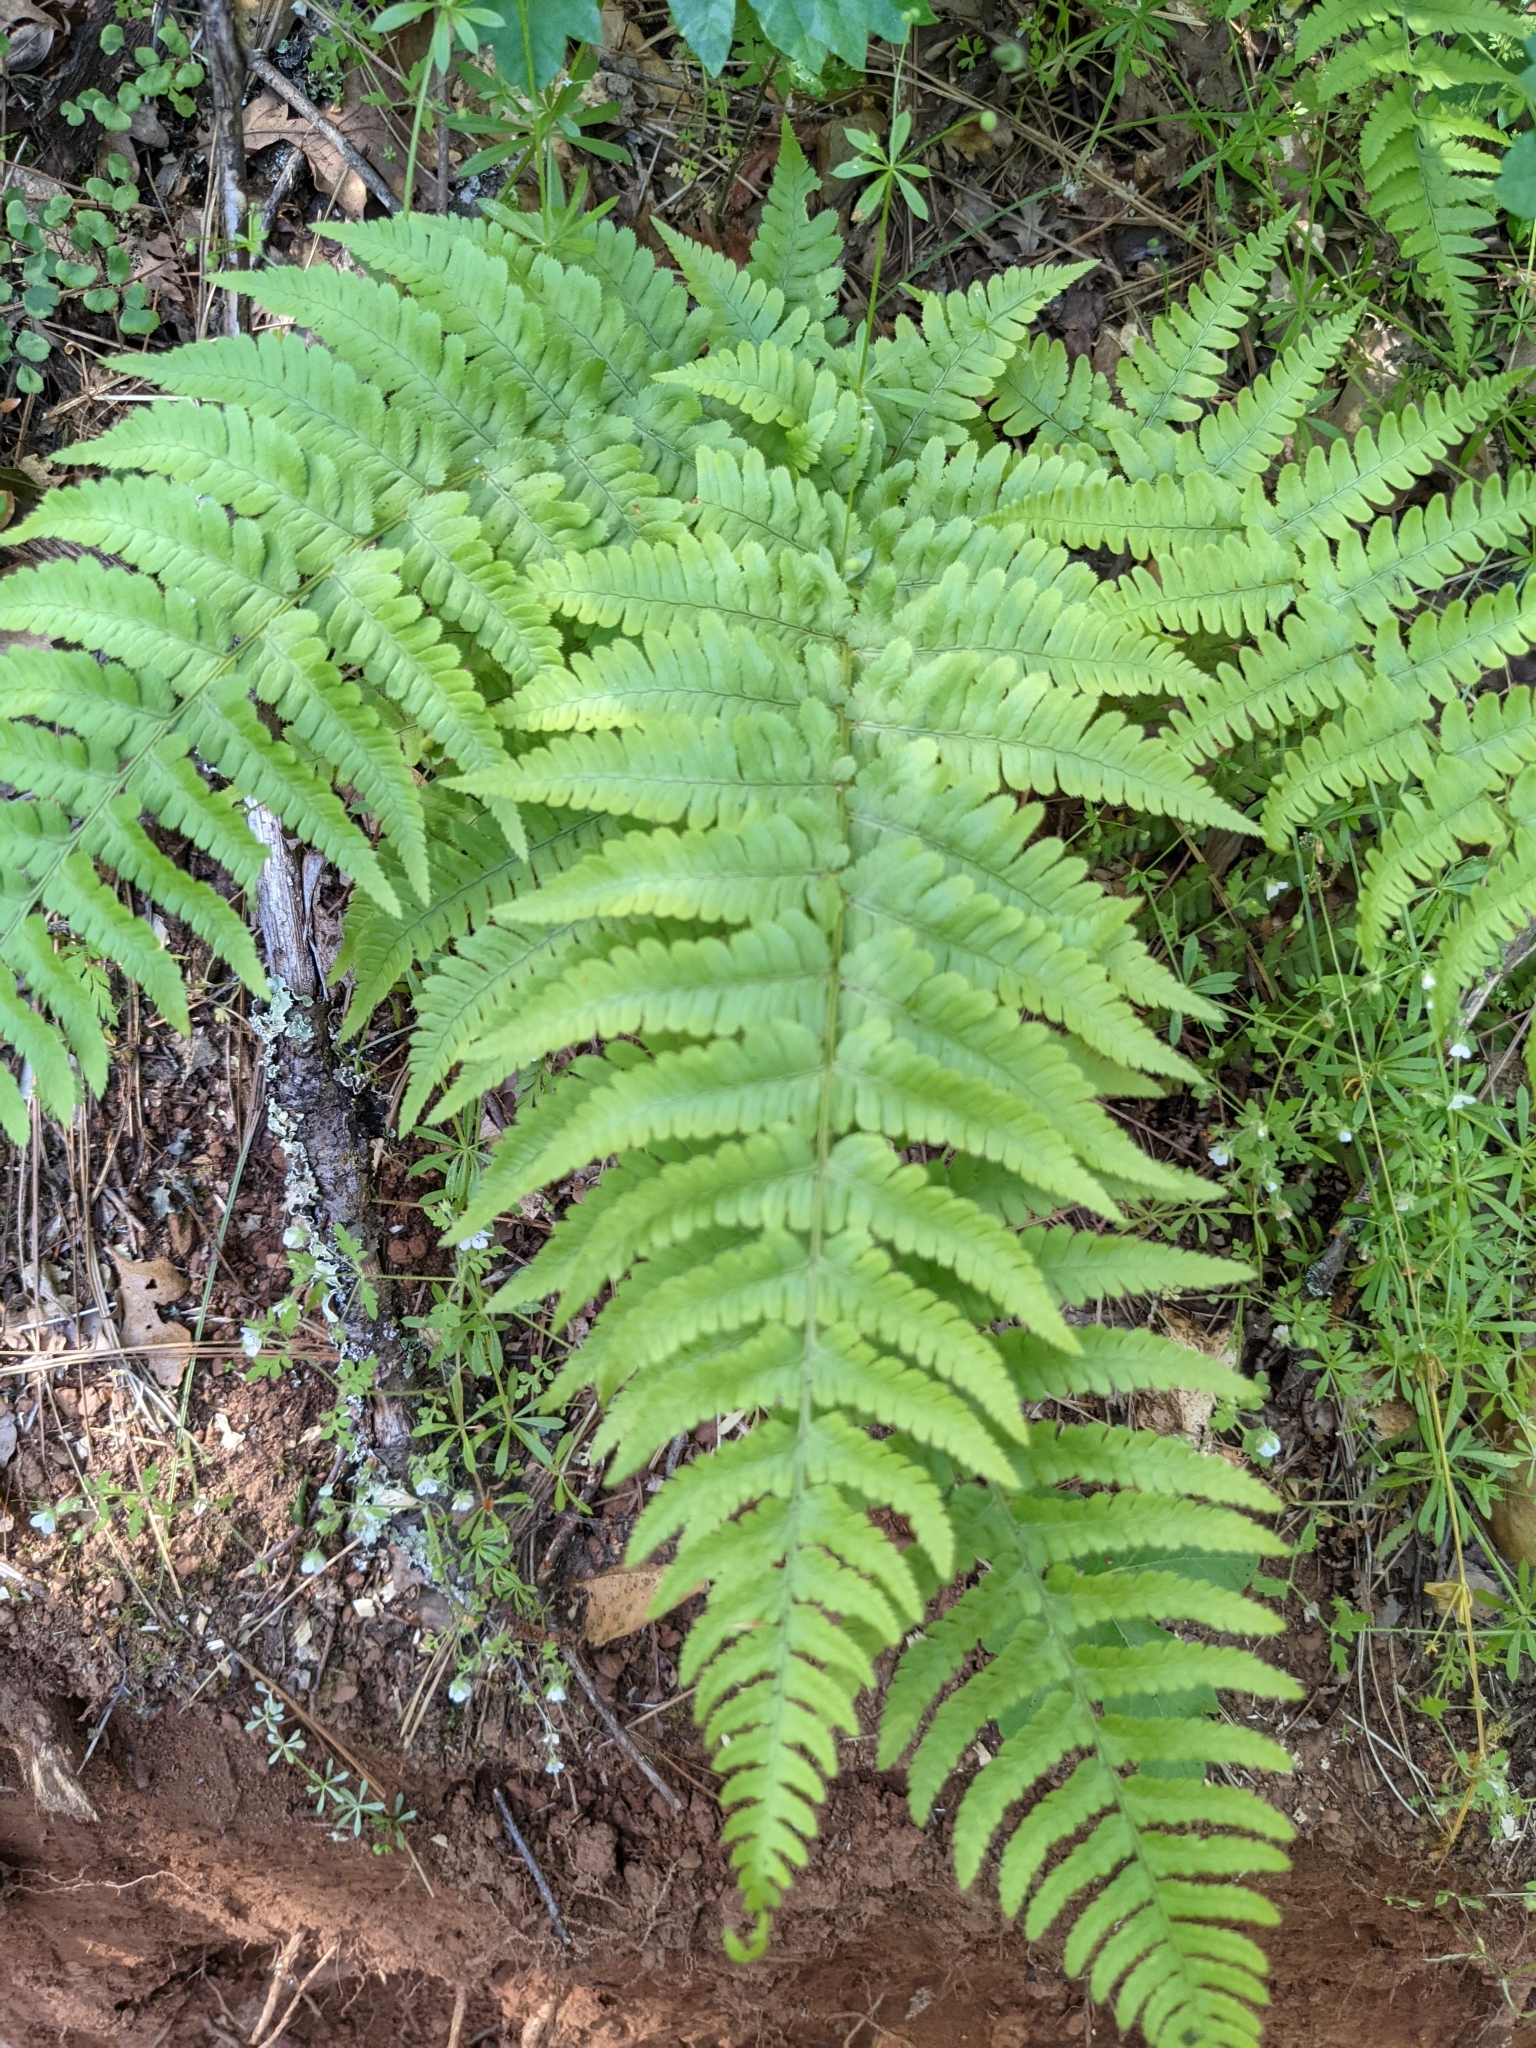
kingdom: Plantae
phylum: Tracheophyta
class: Polypodiopsida
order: Polypodiales
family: Dryopteridaceae
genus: Dryopteris
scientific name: Dryopteris arguta
